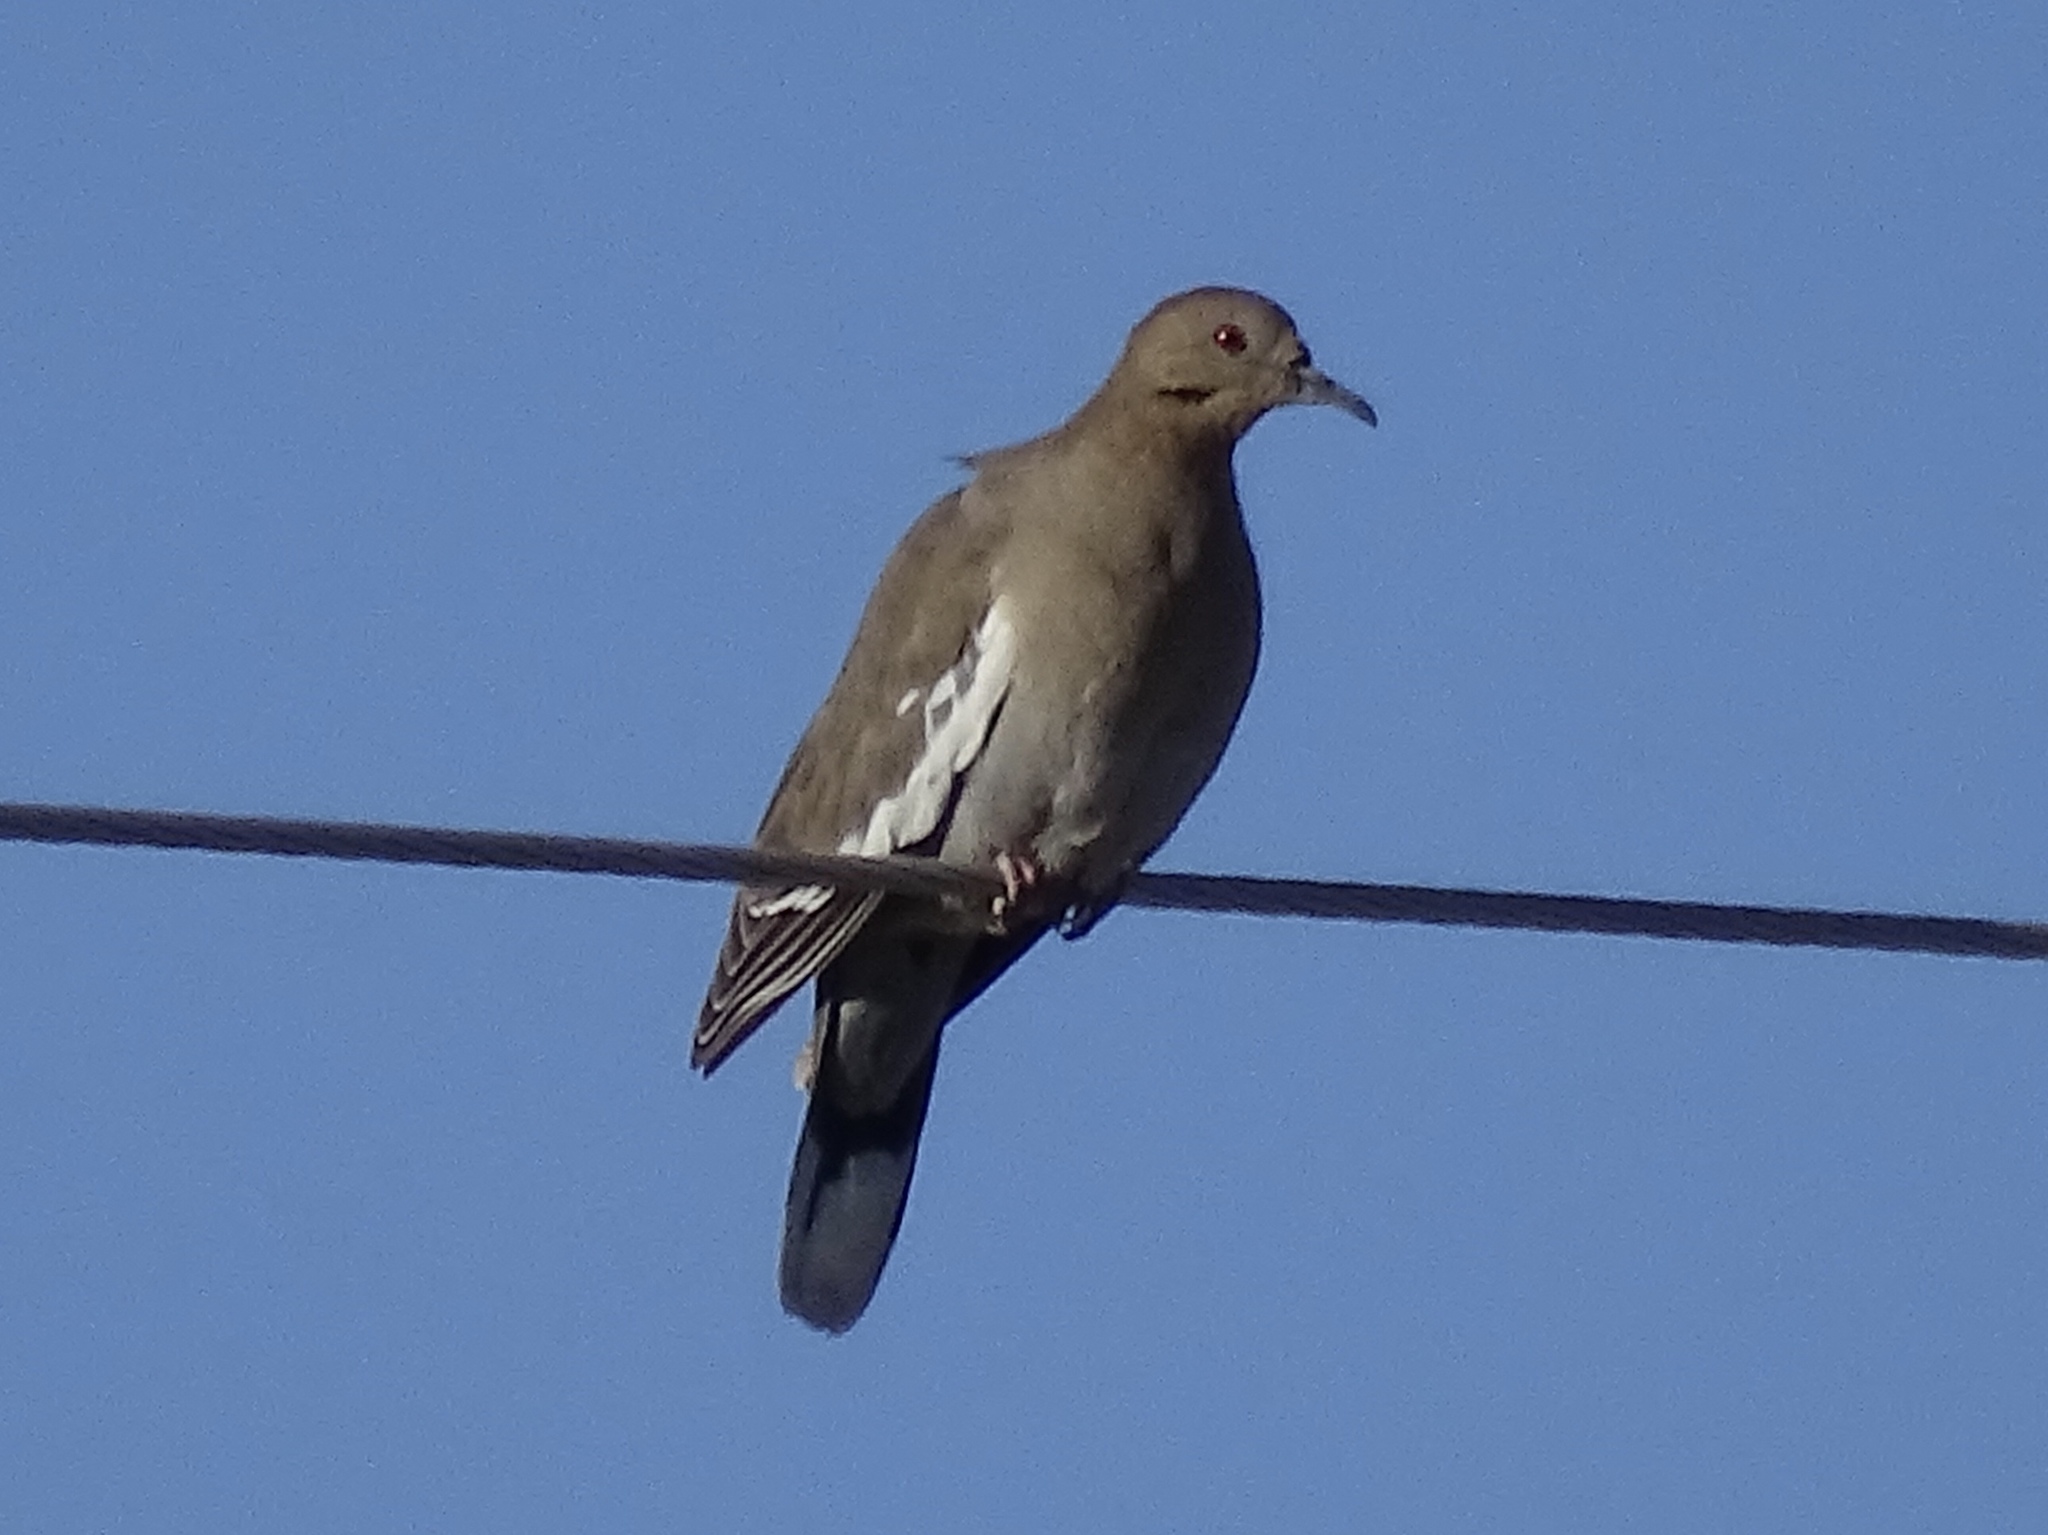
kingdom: Animalia
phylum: Chordata
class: Aves
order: Columbiformes
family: Columbidae
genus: Zenaida
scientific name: Zenaida asiatica
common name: White-winged dove
